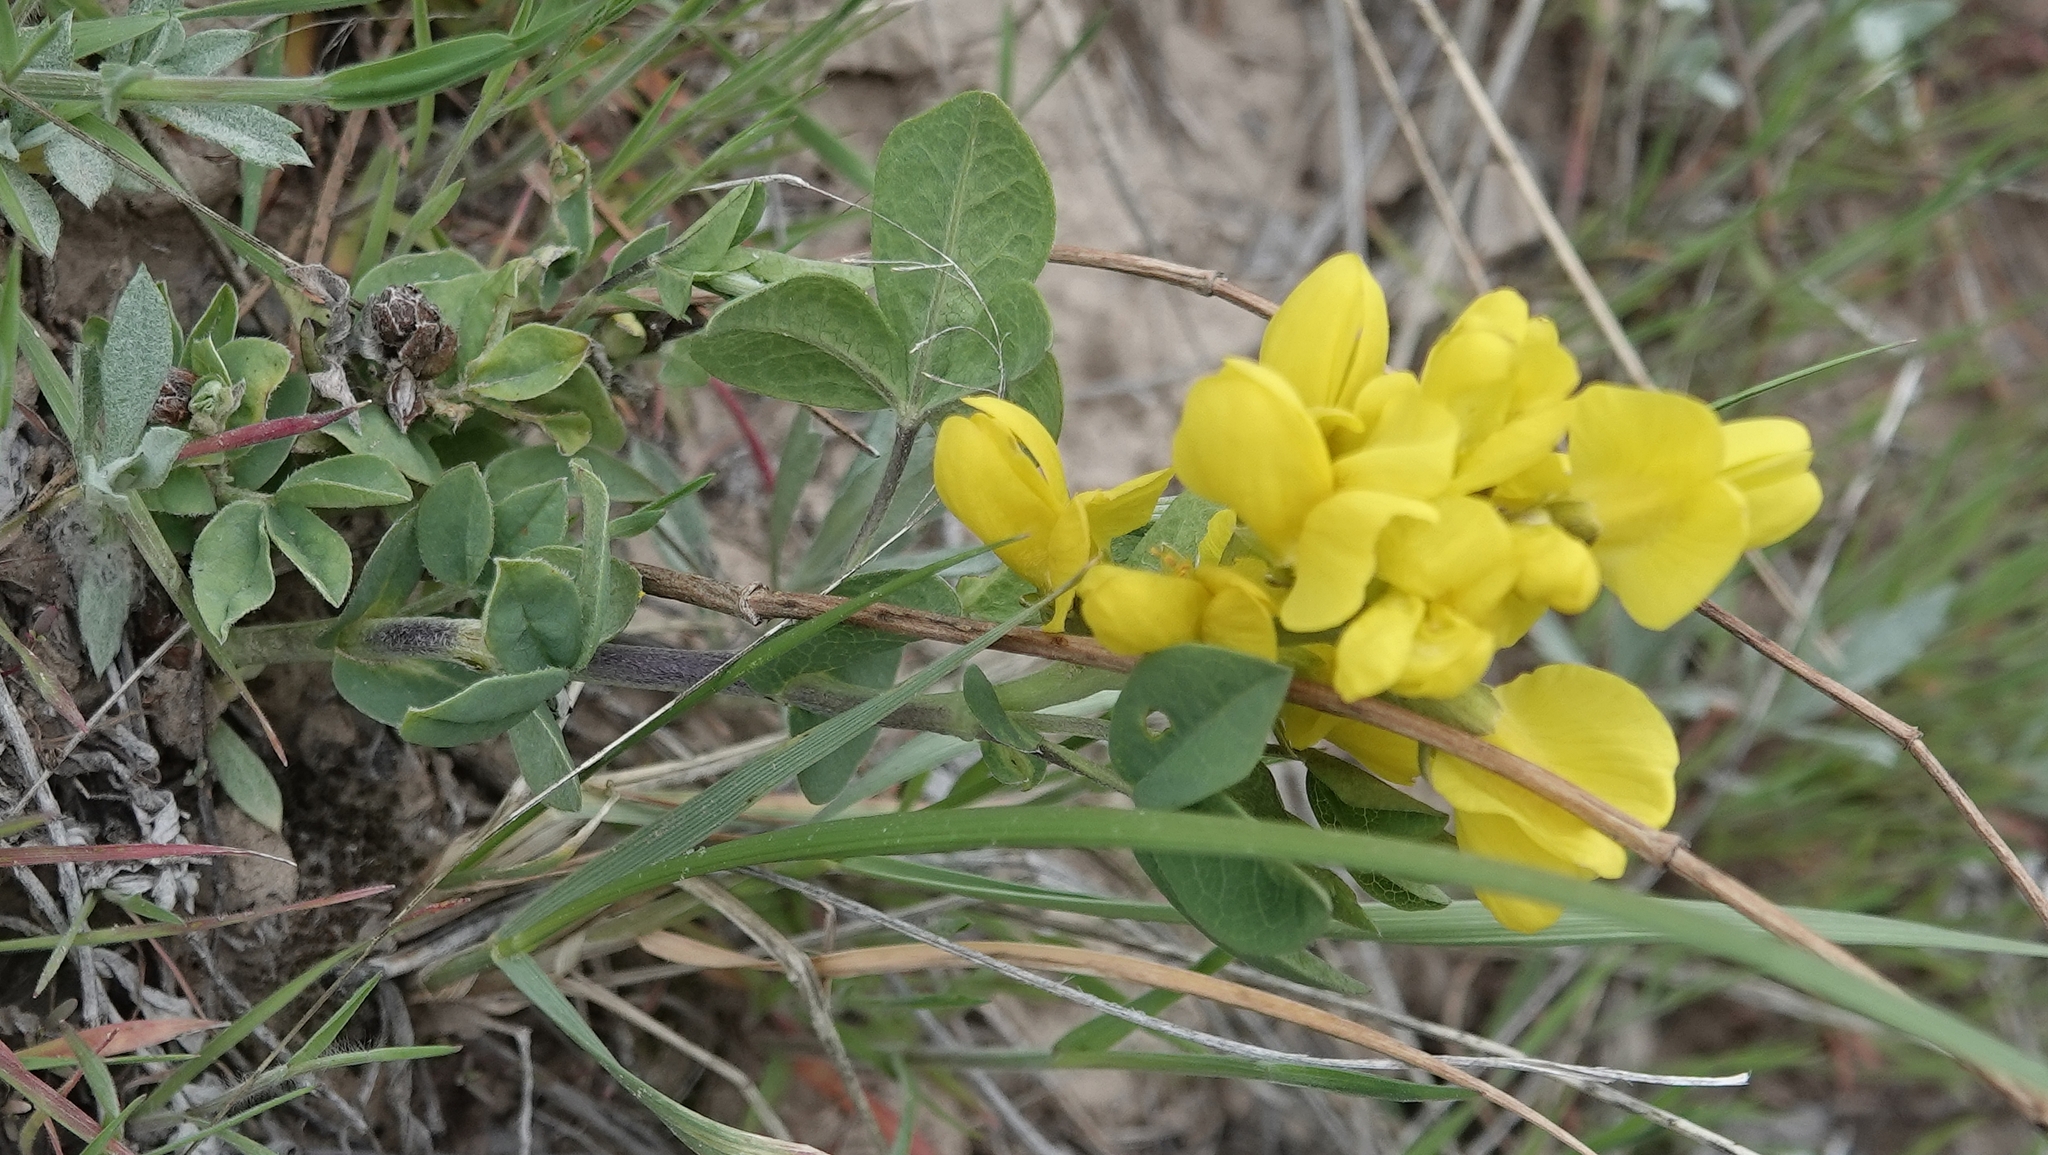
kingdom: Plantae
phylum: Tracheophyta
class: Magnoliopsida
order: Fabales
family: Fabaceae
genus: Thermopsis
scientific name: Thermopsis rhombifolia
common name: Circle-pod-pea
